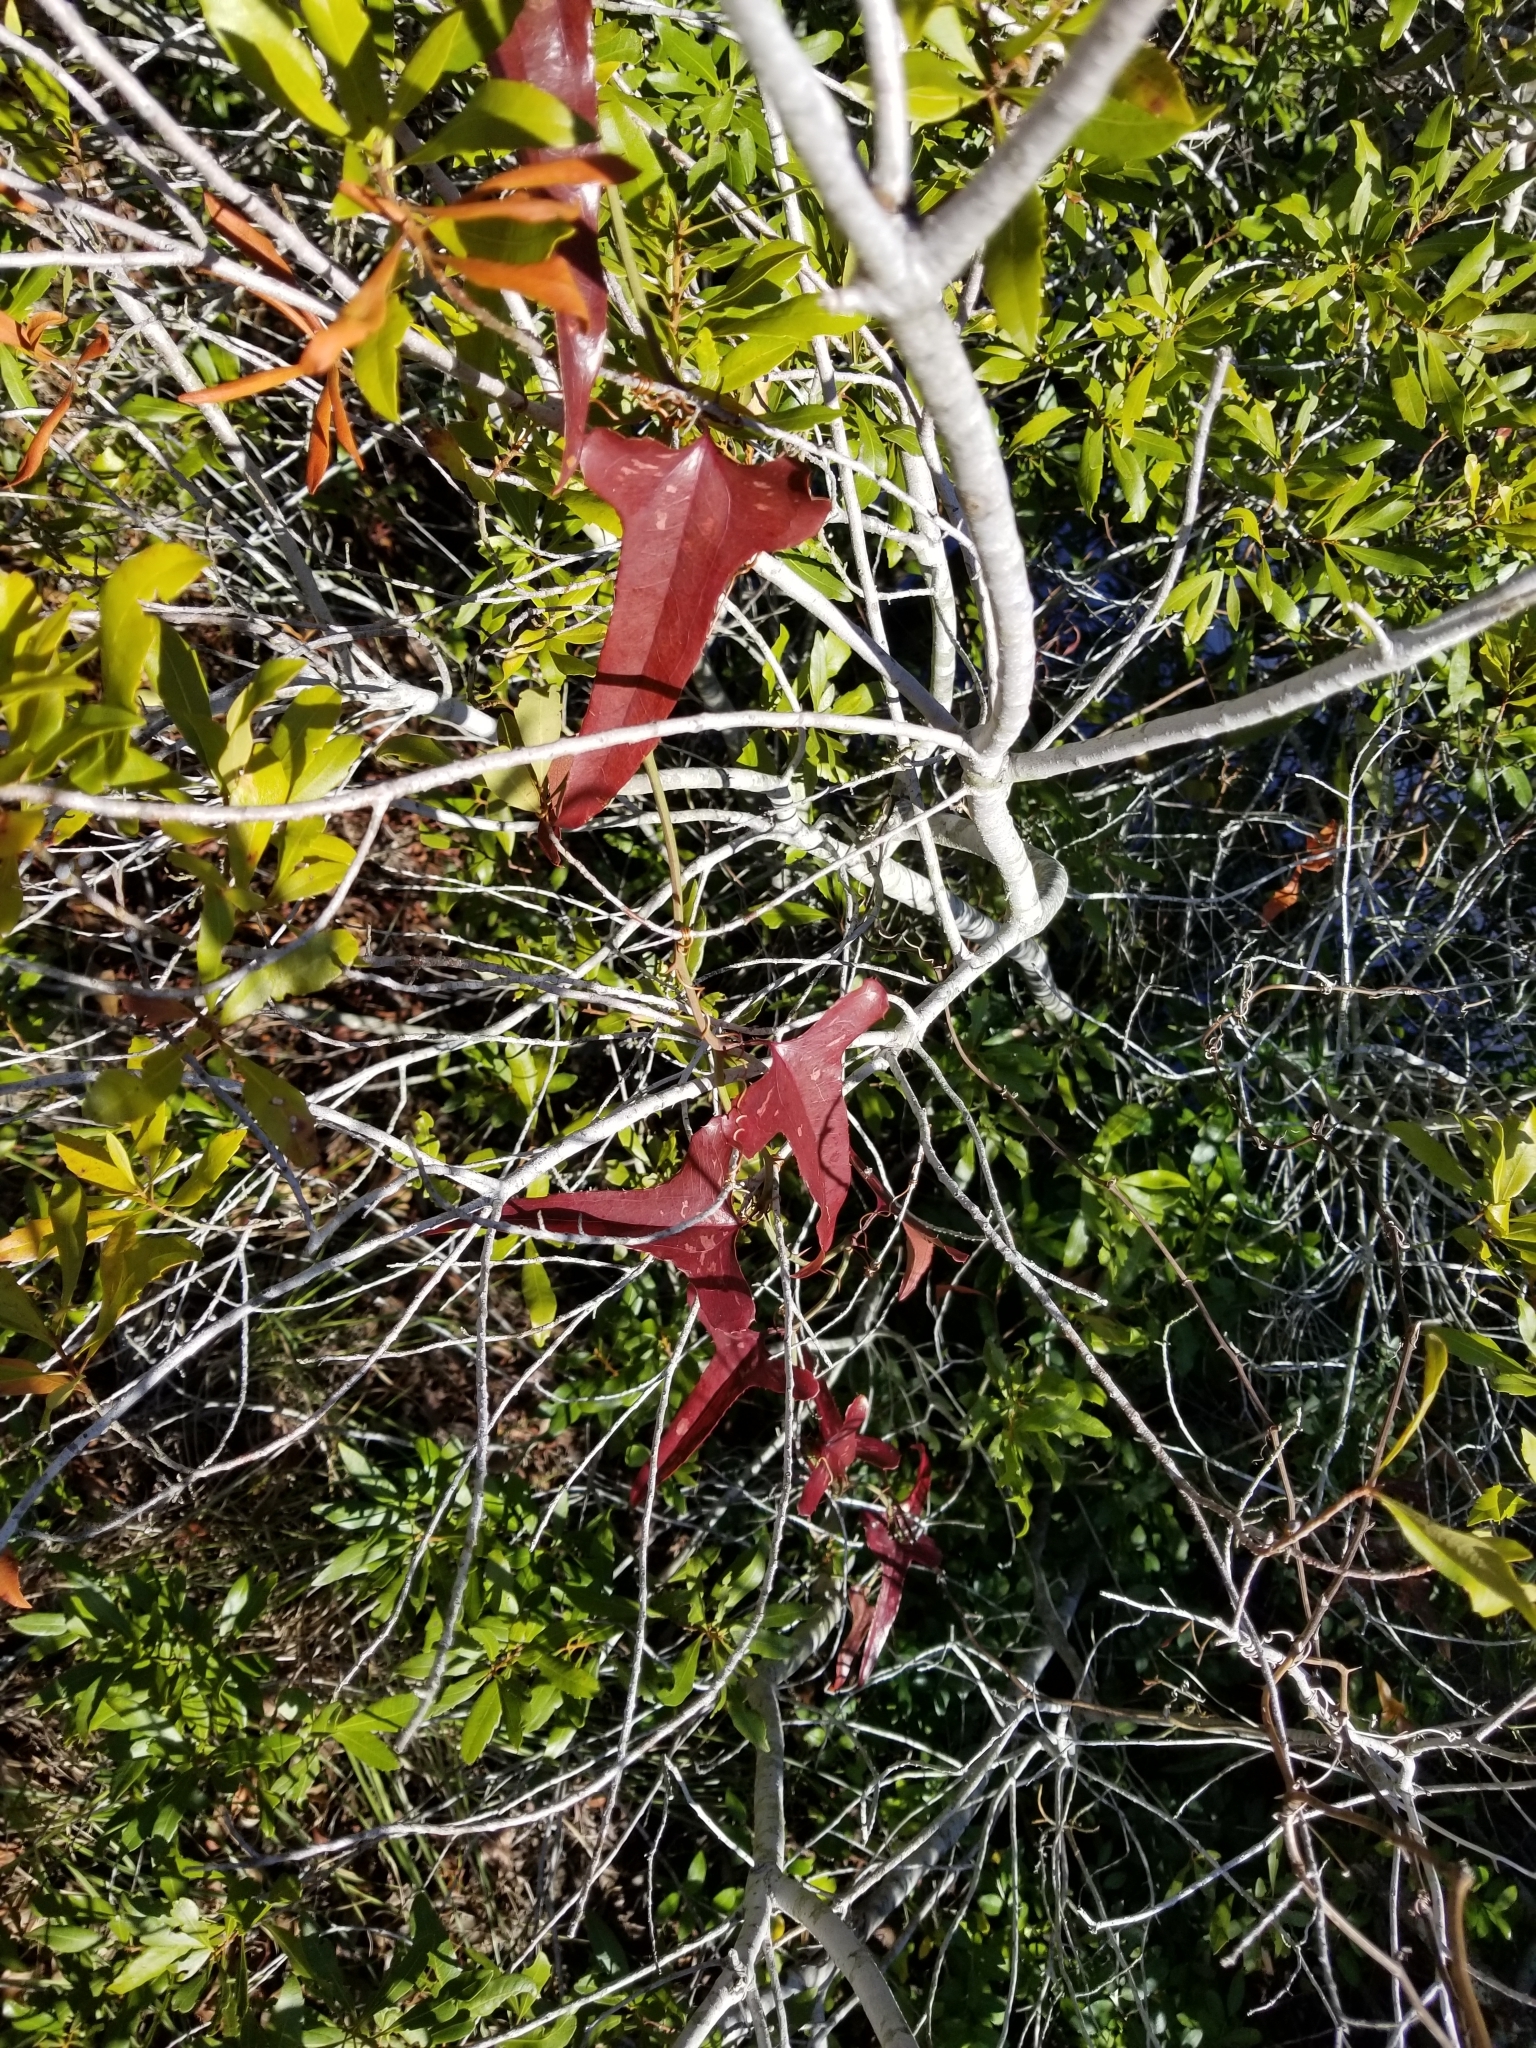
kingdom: Plantae
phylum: Tracheophyta
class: Liliopsida
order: Liliales
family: Smilacaceae
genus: Smilax
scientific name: Smilax bona-nox
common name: Catbrier
